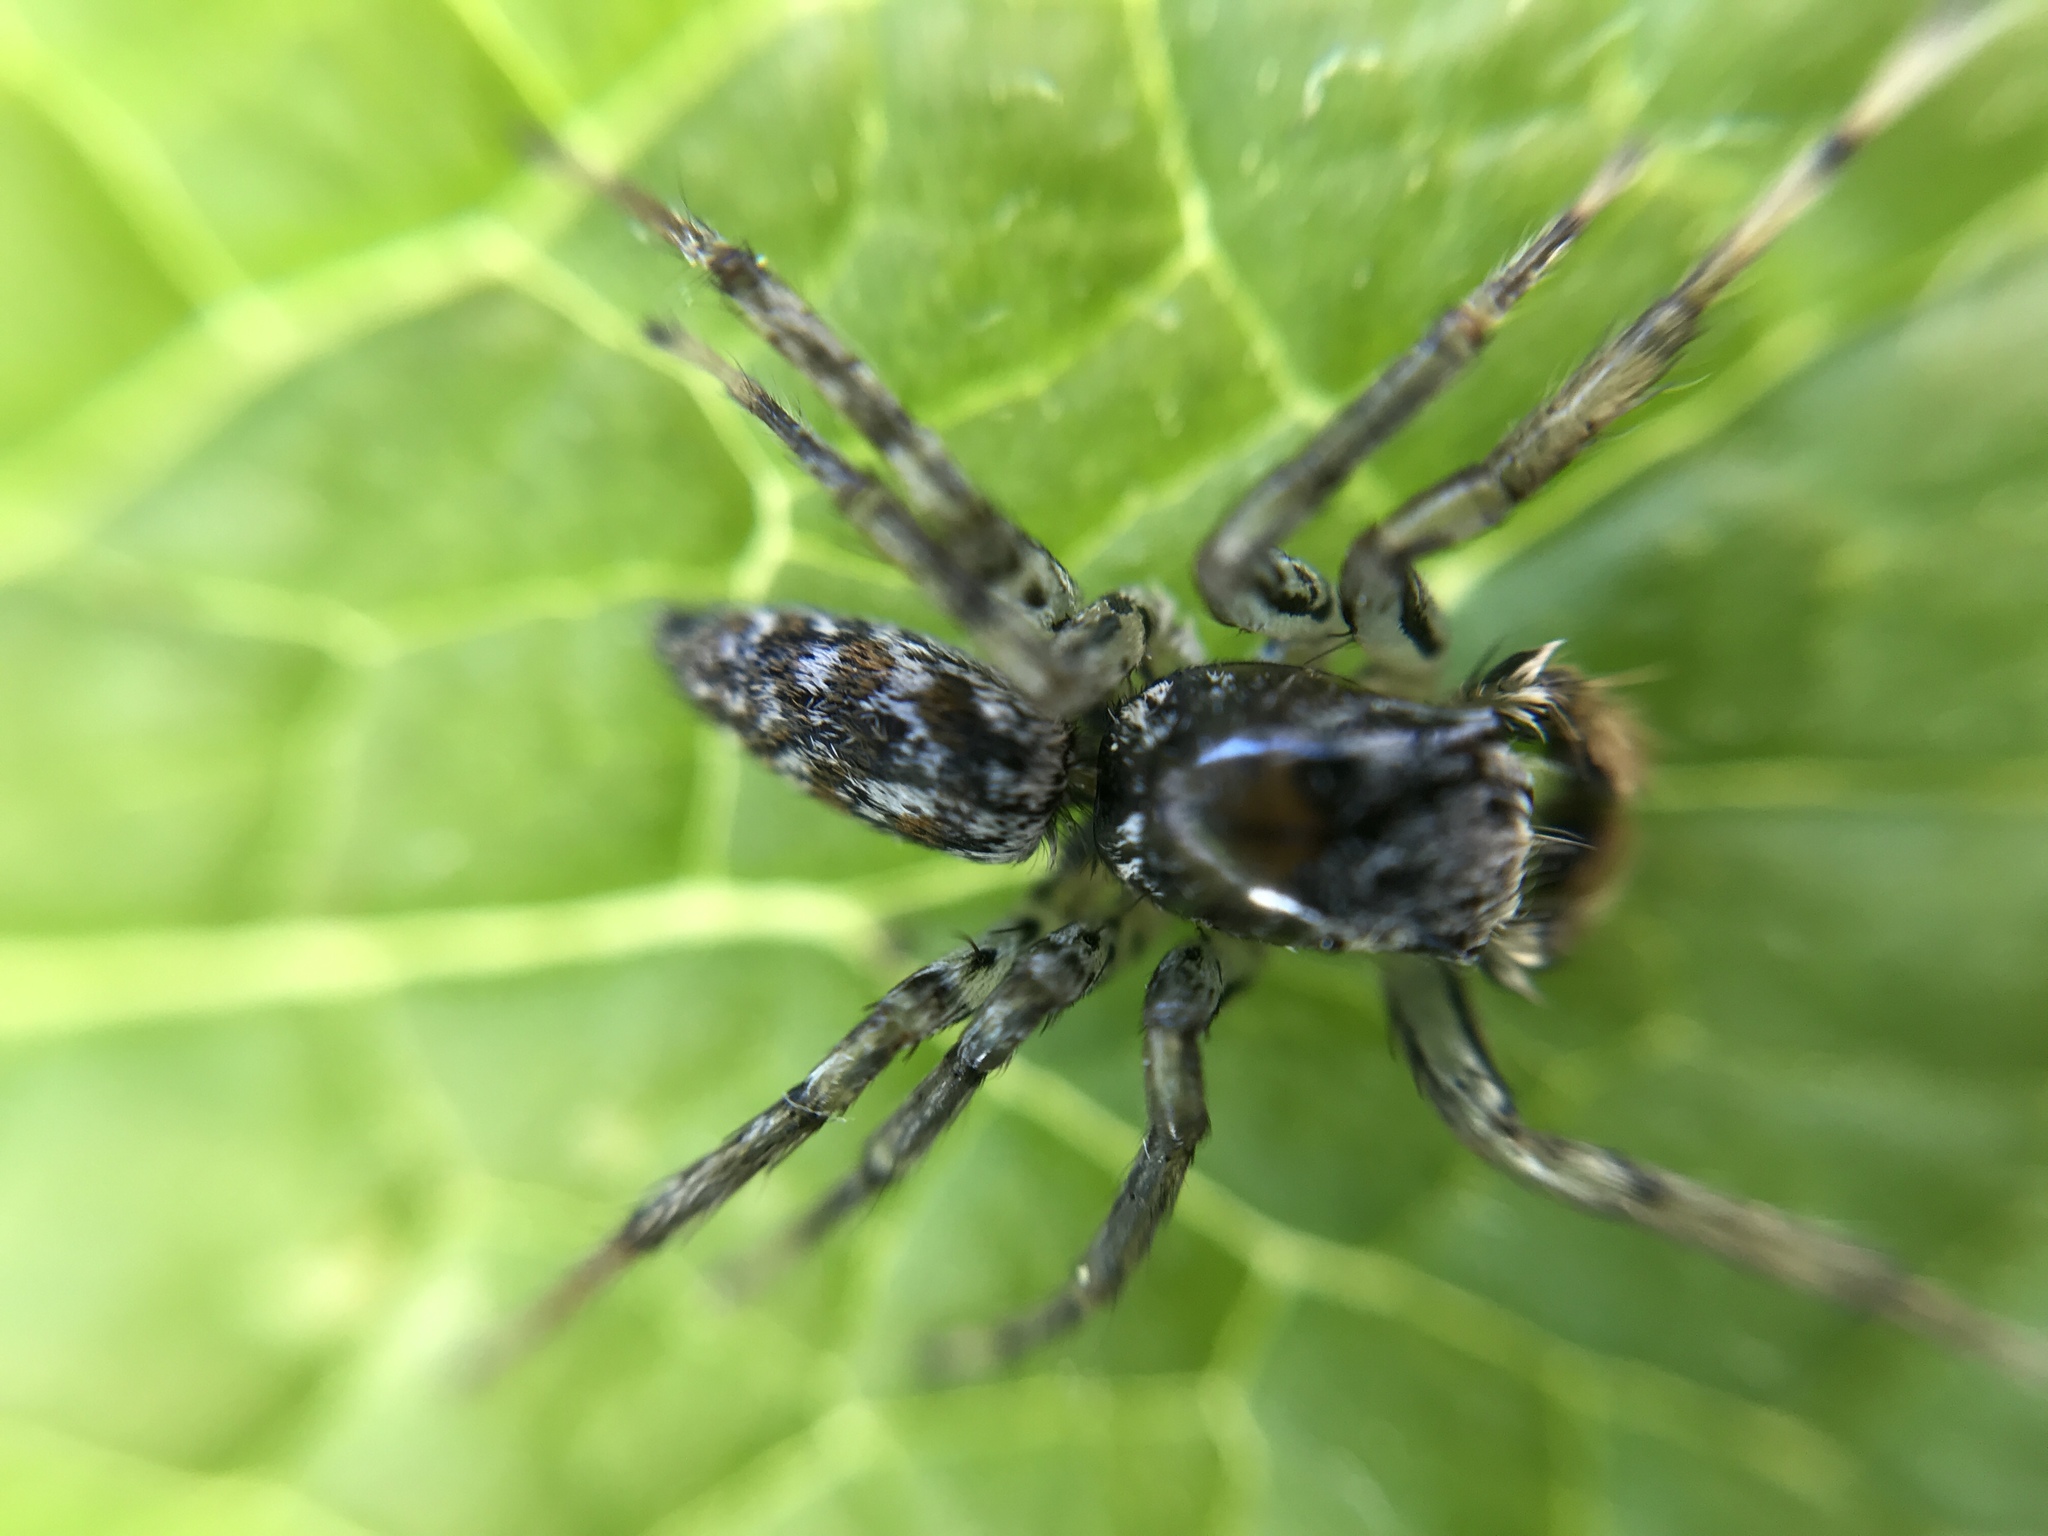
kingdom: Animalia
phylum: Arthropoda
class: Arachnida
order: Araneae
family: Salticidae
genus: Maevia
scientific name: Maevia inclemens
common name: Dimorphic jumper
